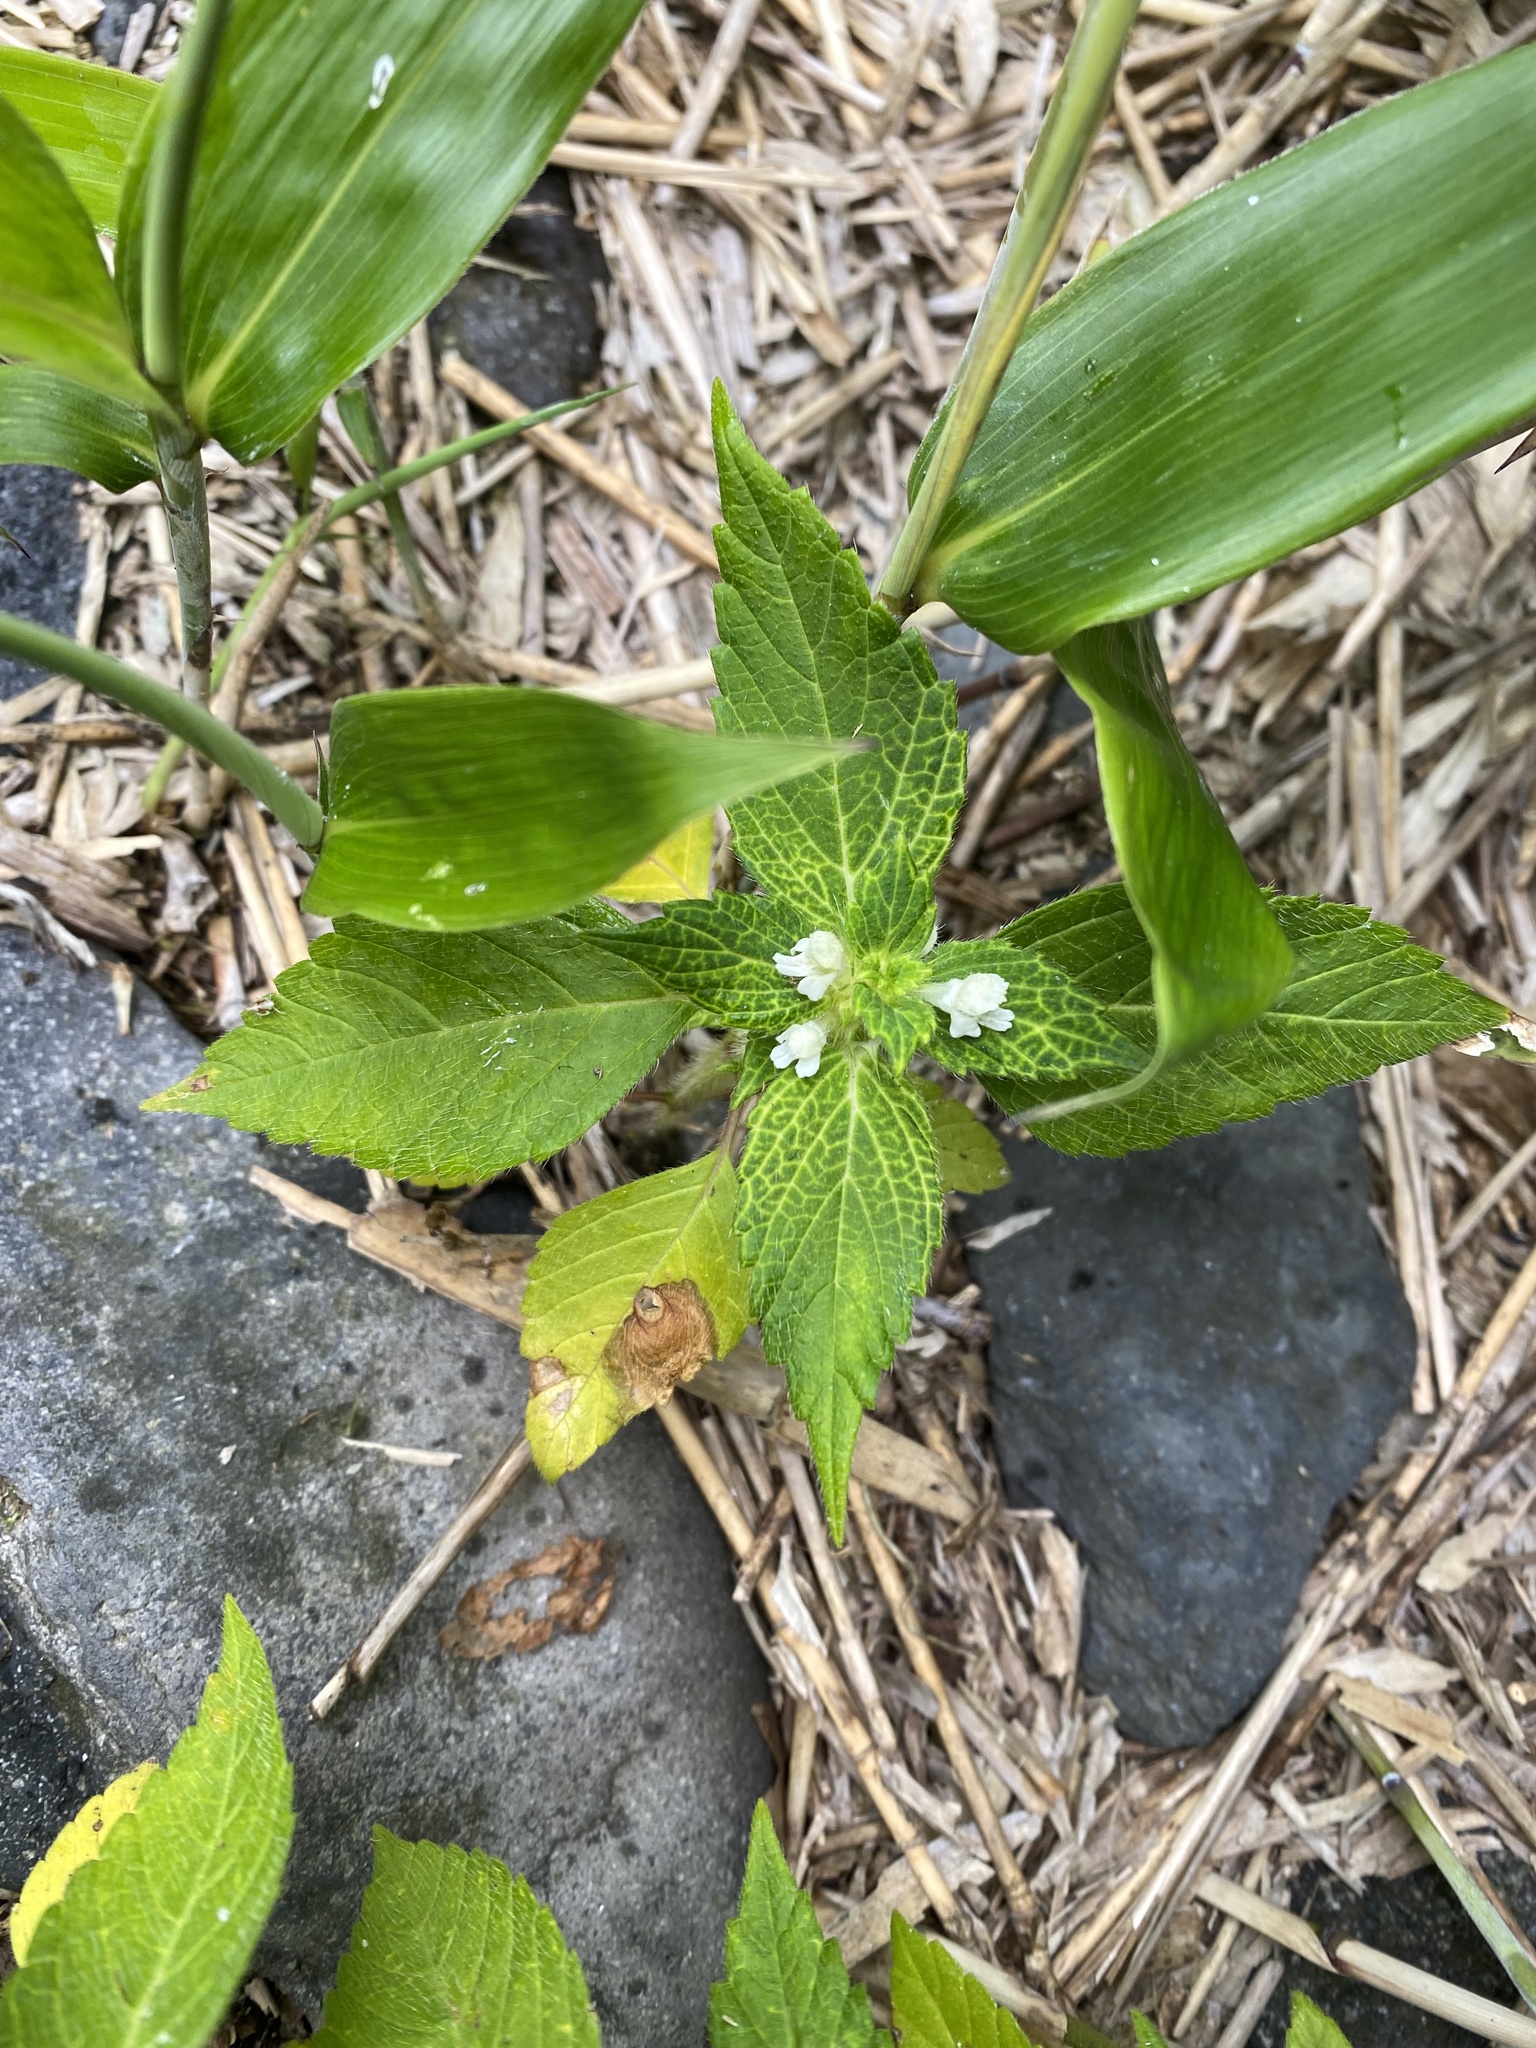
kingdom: Plantae
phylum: Tracheophyta
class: Magnoliopsida
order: Lamiales
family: Lamiaceae
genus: Galeopsis
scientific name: Galeopsis bifida
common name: Bifid hemp-nettle
